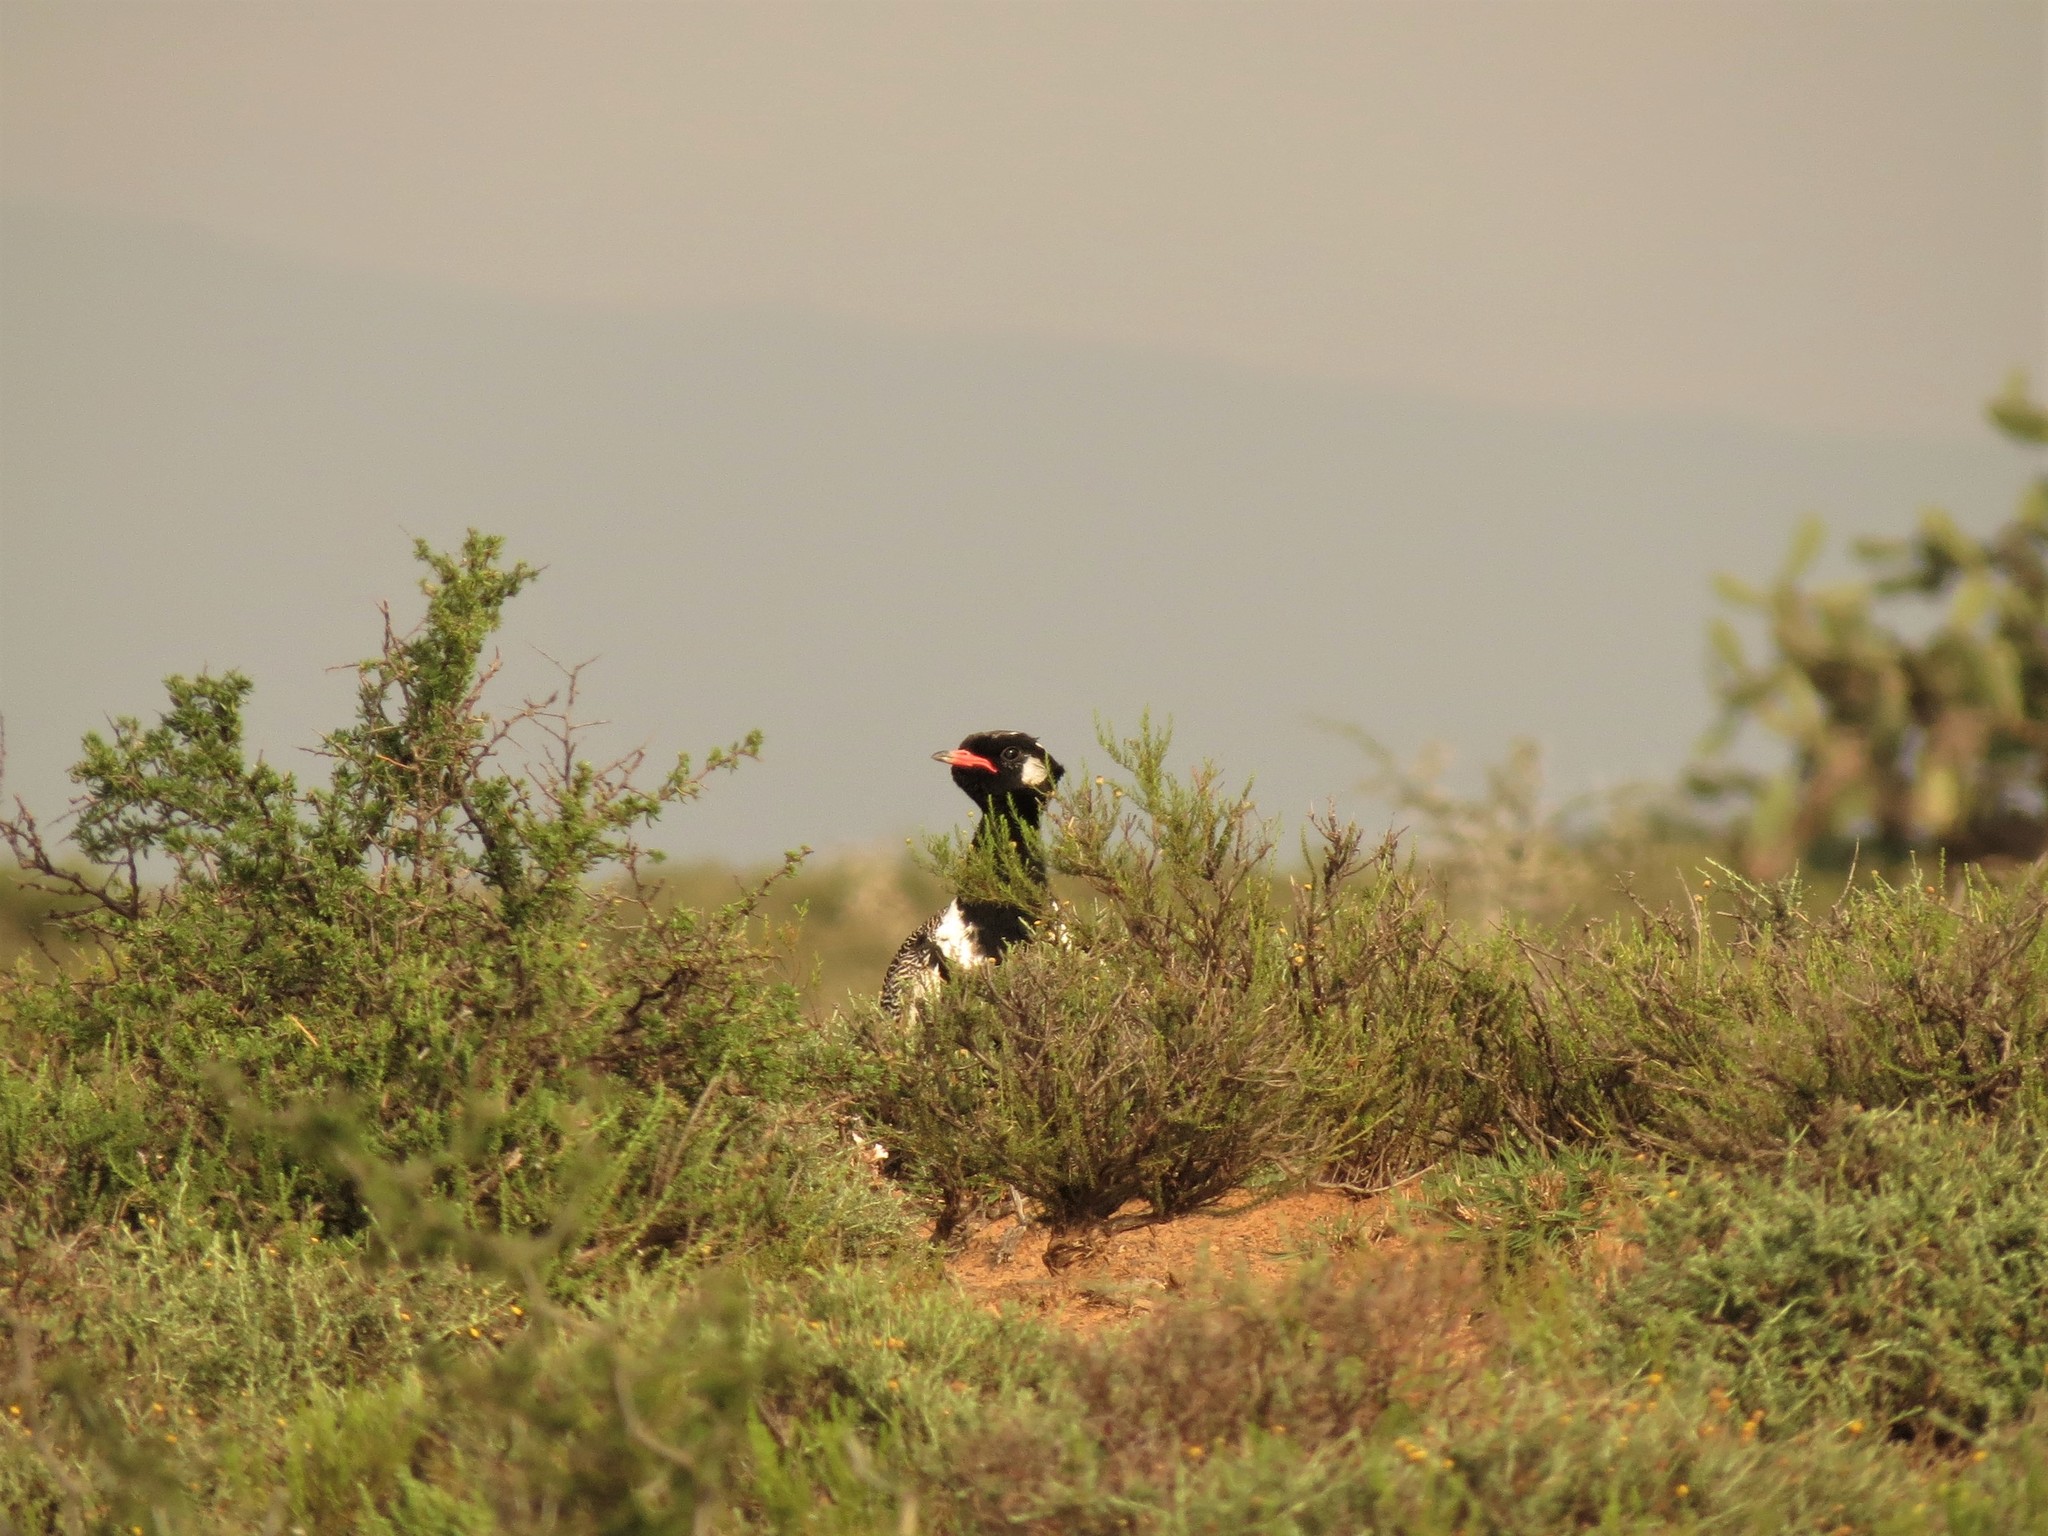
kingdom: Animalia
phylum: Chordata
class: Aves
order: Otidiformes
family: Otididae
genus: Afrotis
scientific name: Afrotis afra
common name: Southern black korhaan
